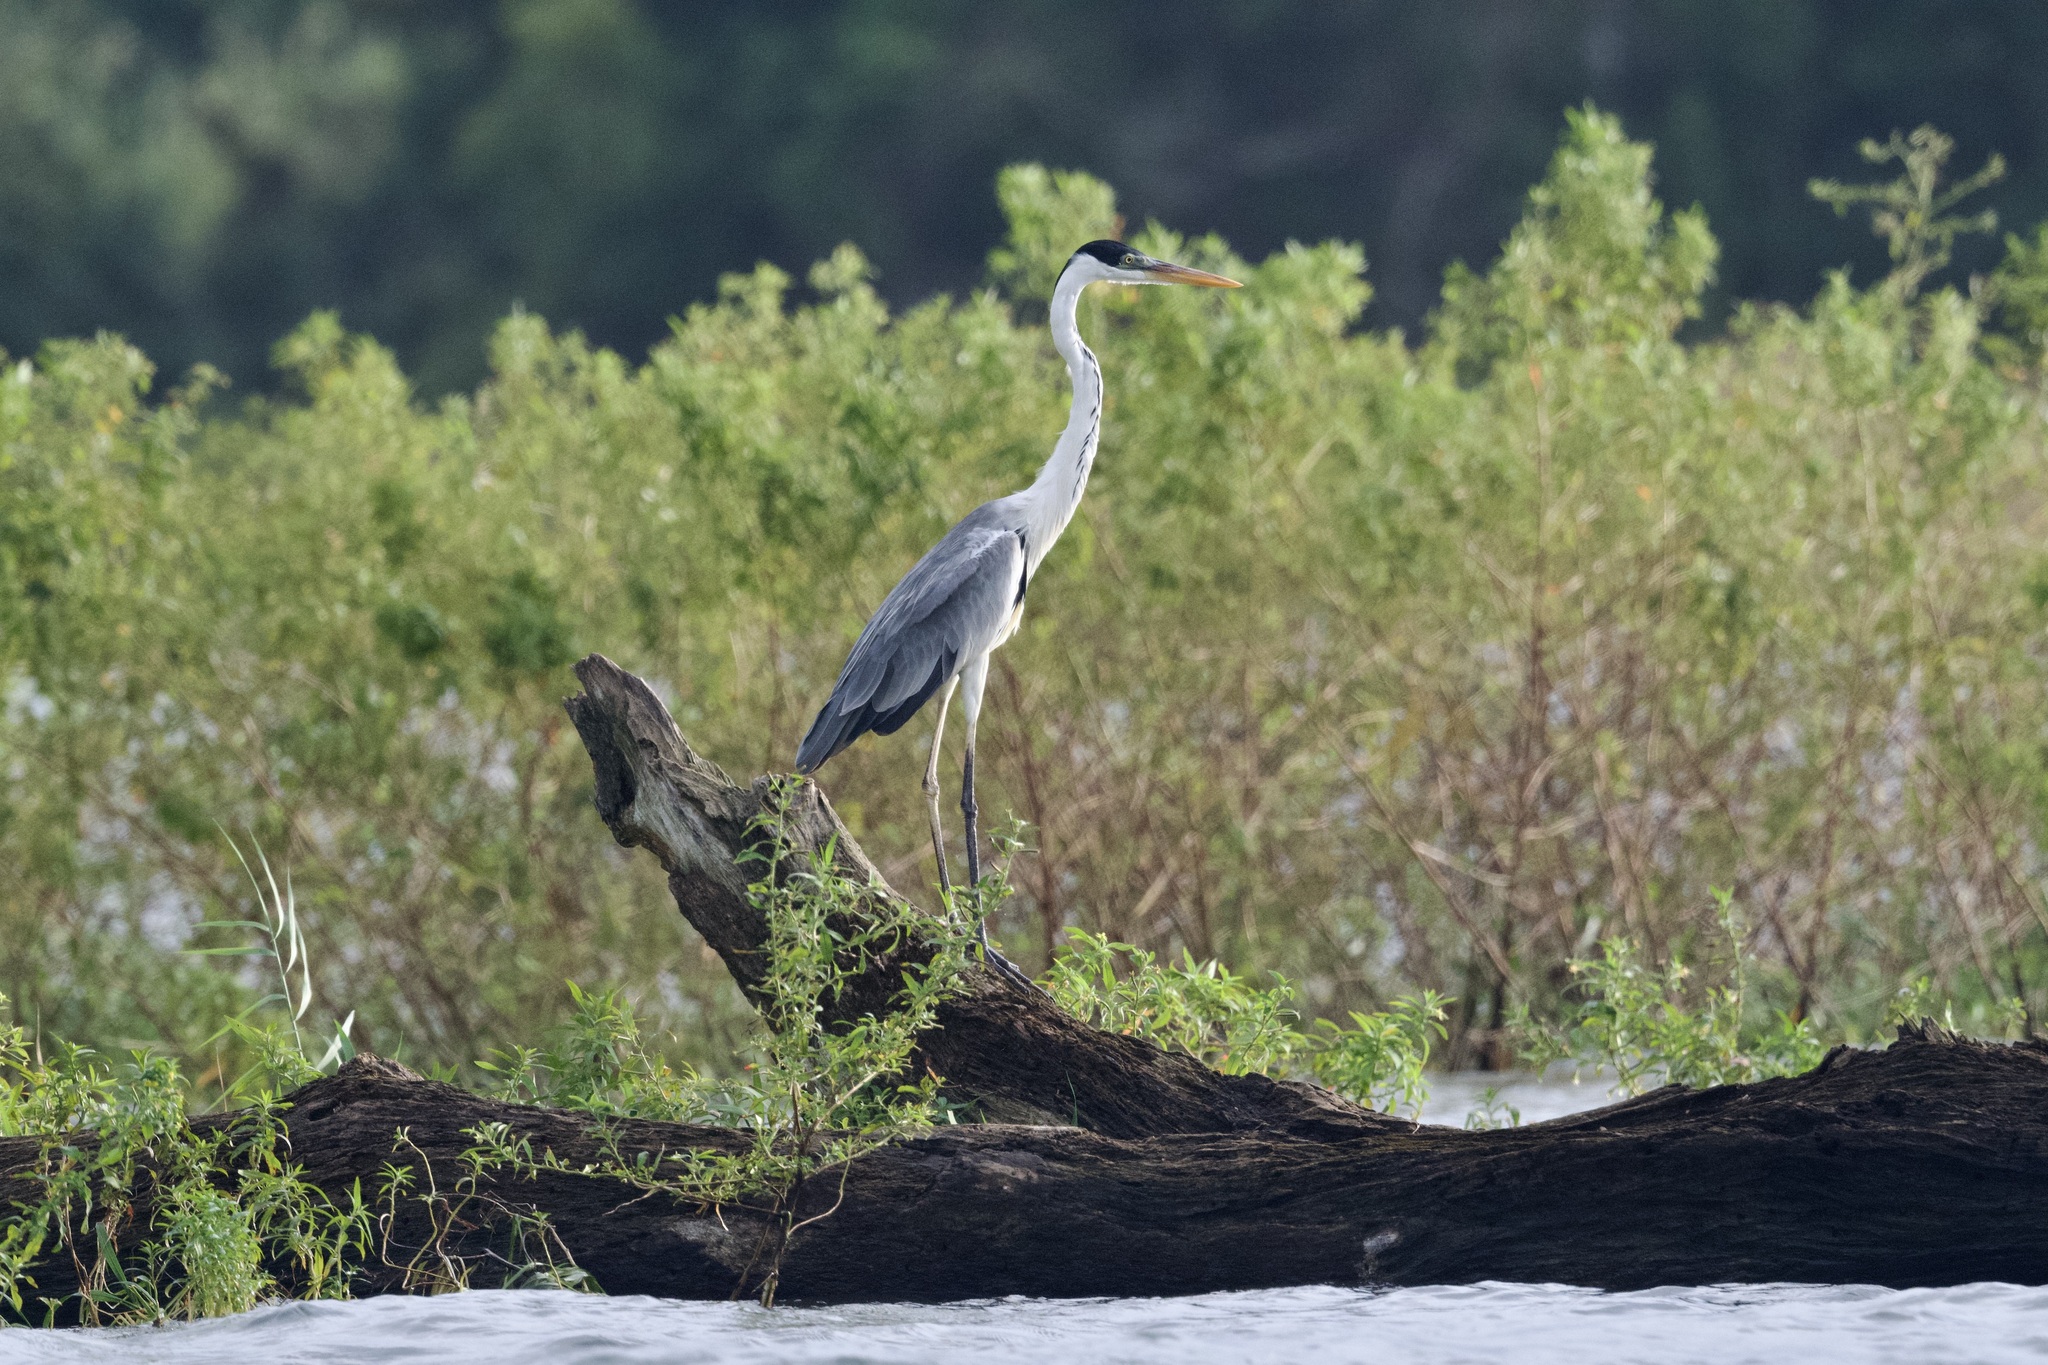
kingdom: Animalia
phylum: Chordata
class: Aves
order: Pelecaniformes
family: Ardeidae
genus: Ardea
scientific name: Ardea cocoi
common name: Cocoi heron
